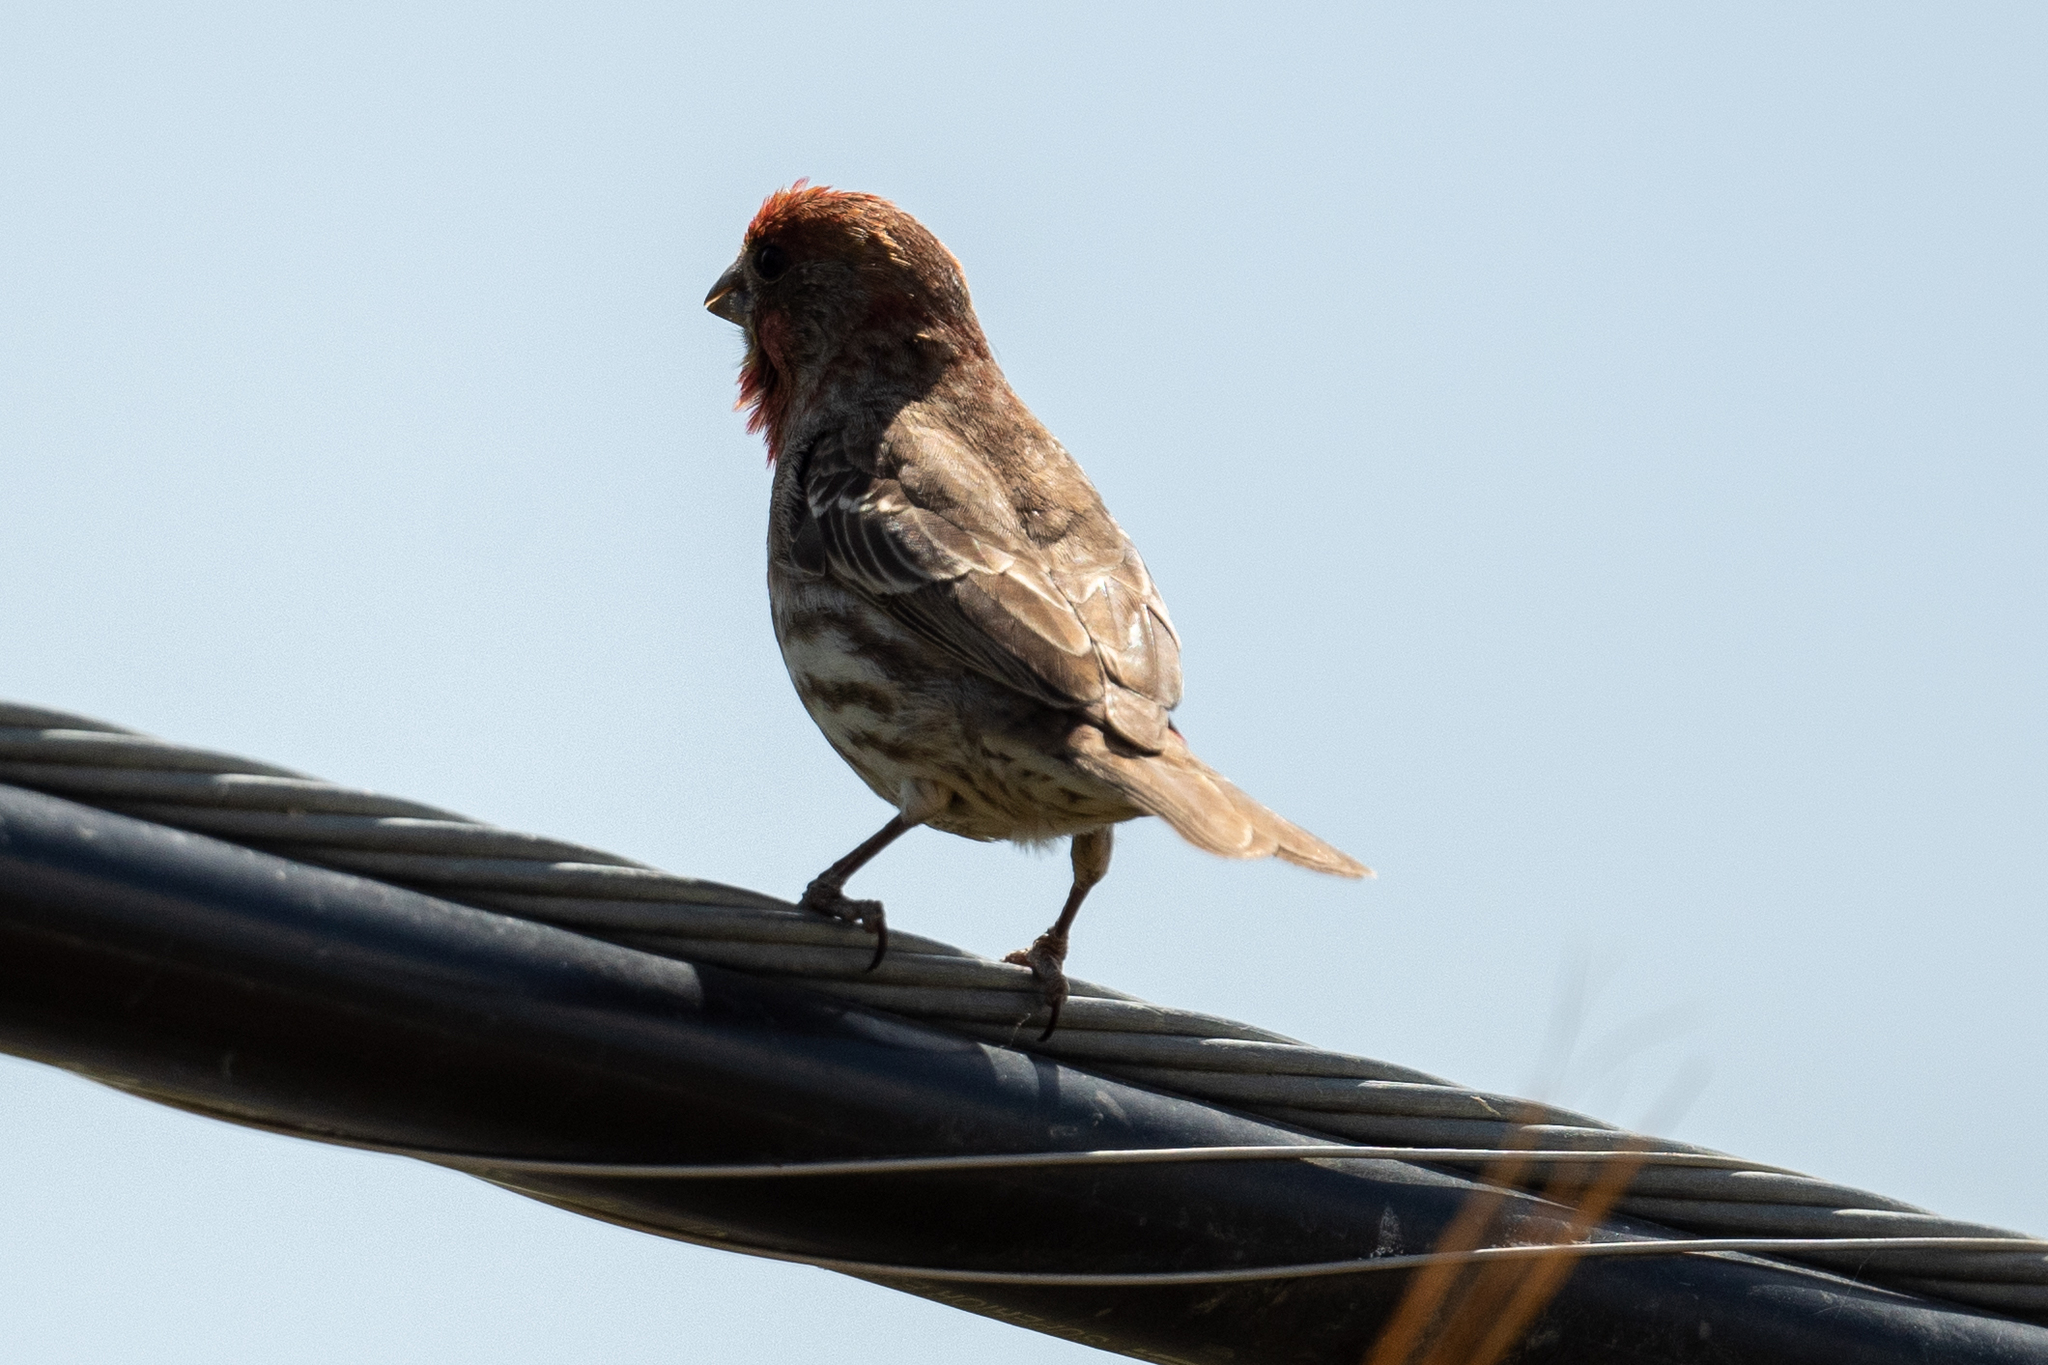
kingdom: Animalia
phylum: Chordata
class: Aves
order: Passeriformes
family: Fringillidae
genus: Haemorhous
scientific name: Haemorhous mexicanus
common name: House finch
